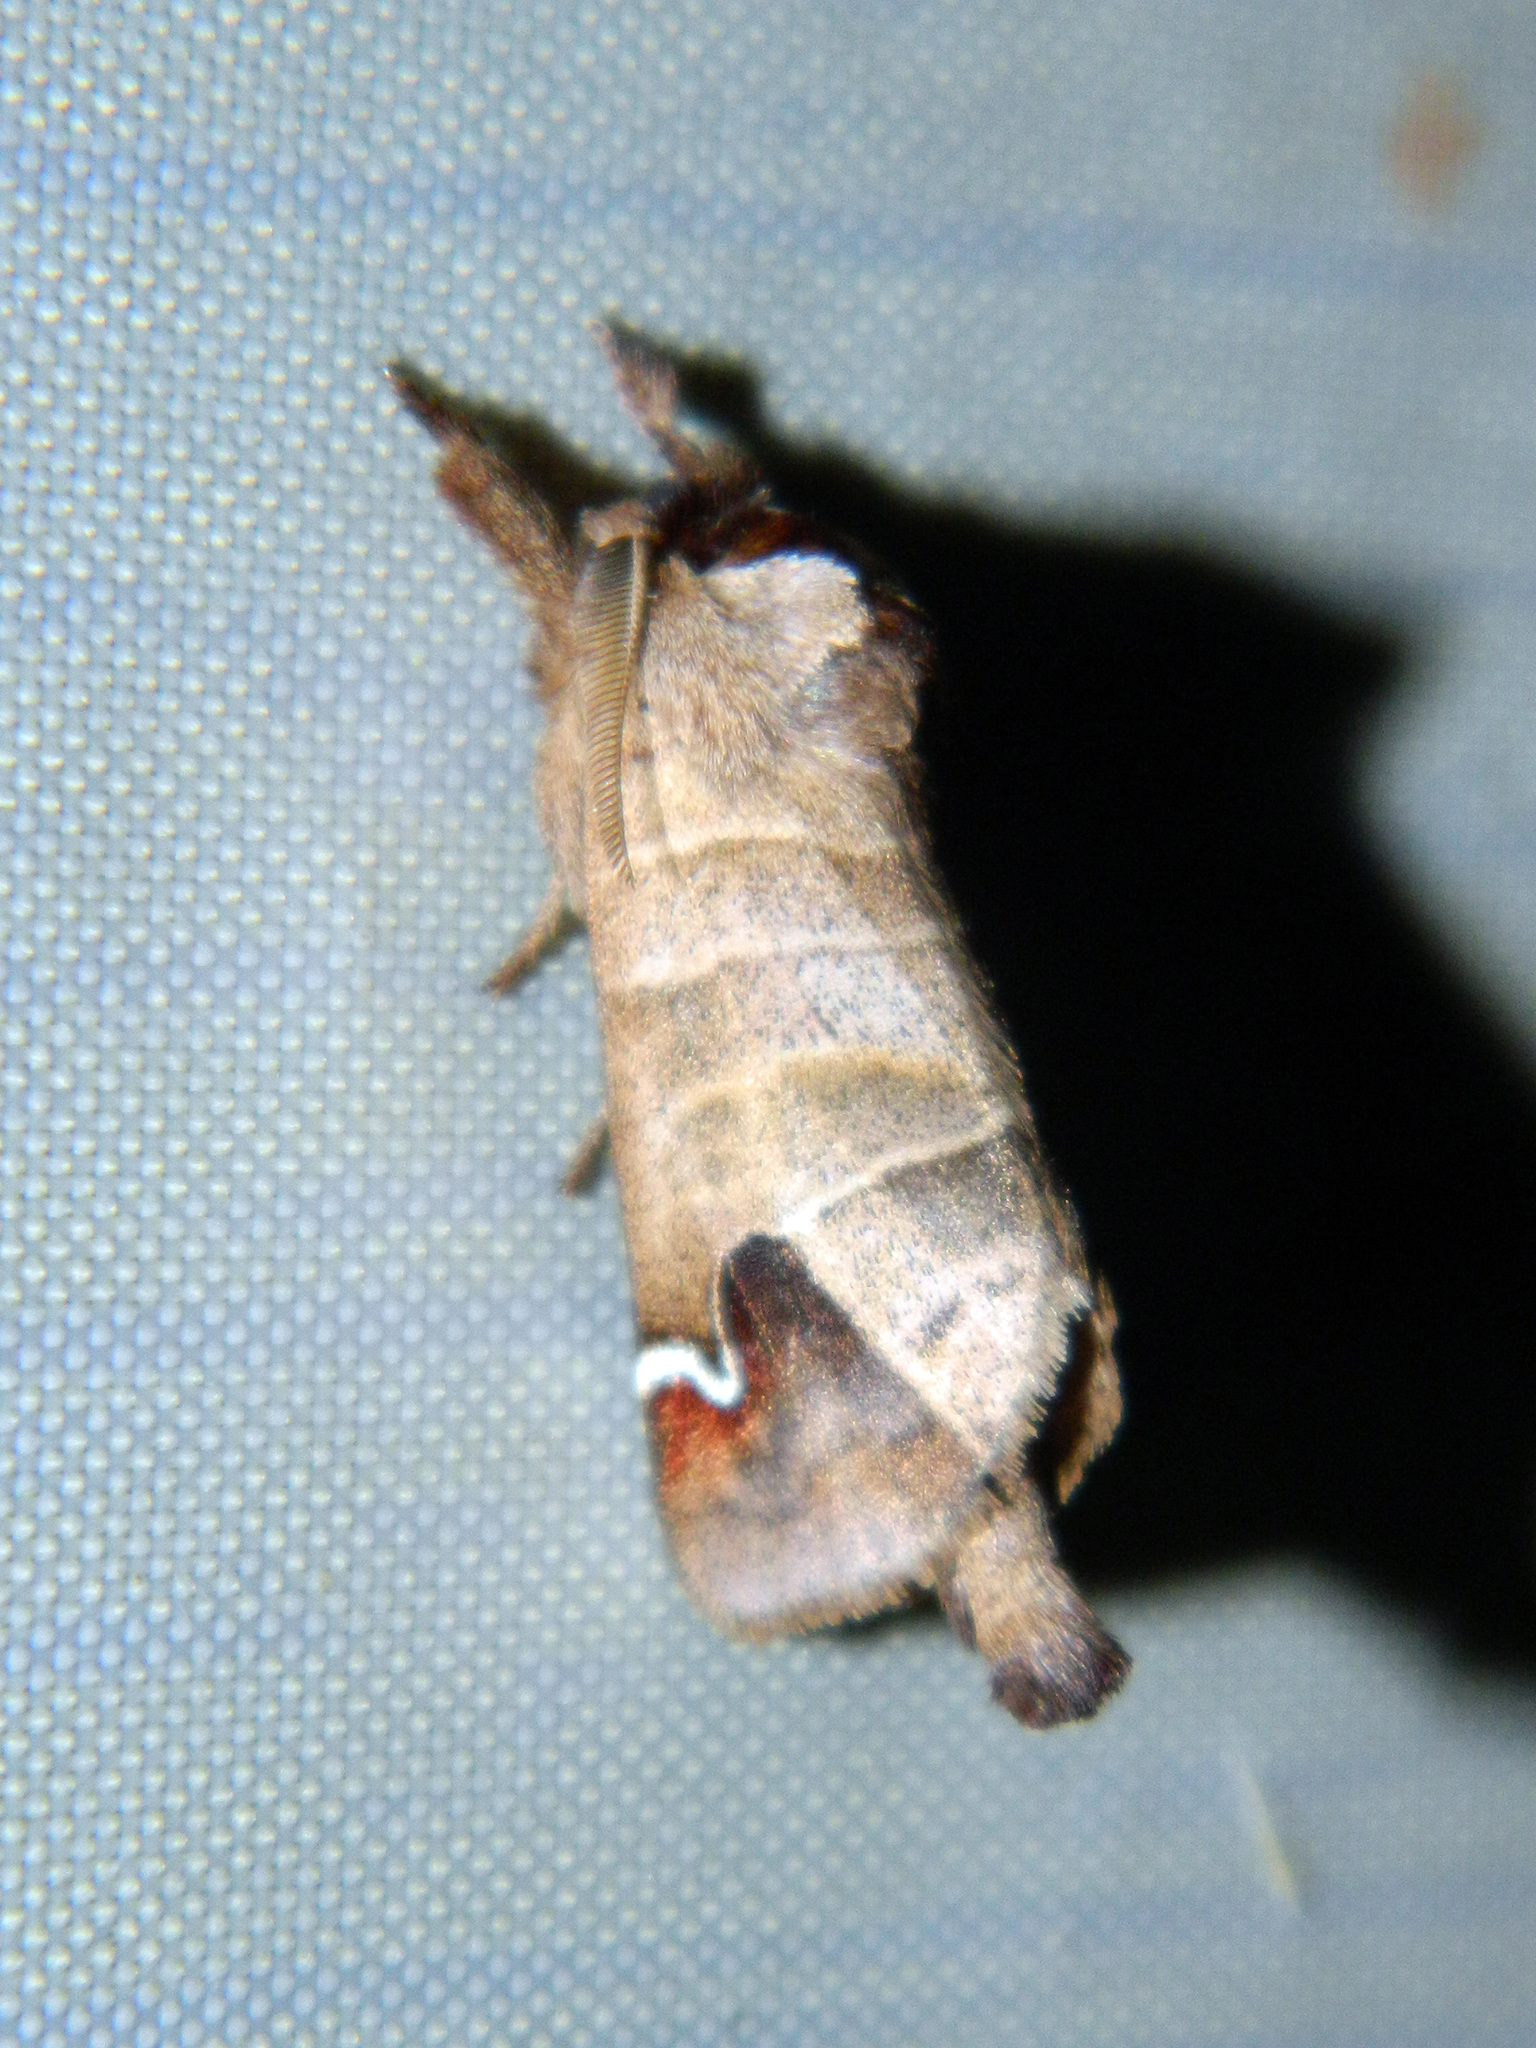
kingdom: Animalia
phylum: Arthropoda
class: Insecta
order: Lepidoptera
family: Notodontidae
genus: Clostera
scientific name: Clostera albosigma
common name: Sigmoid prominent
